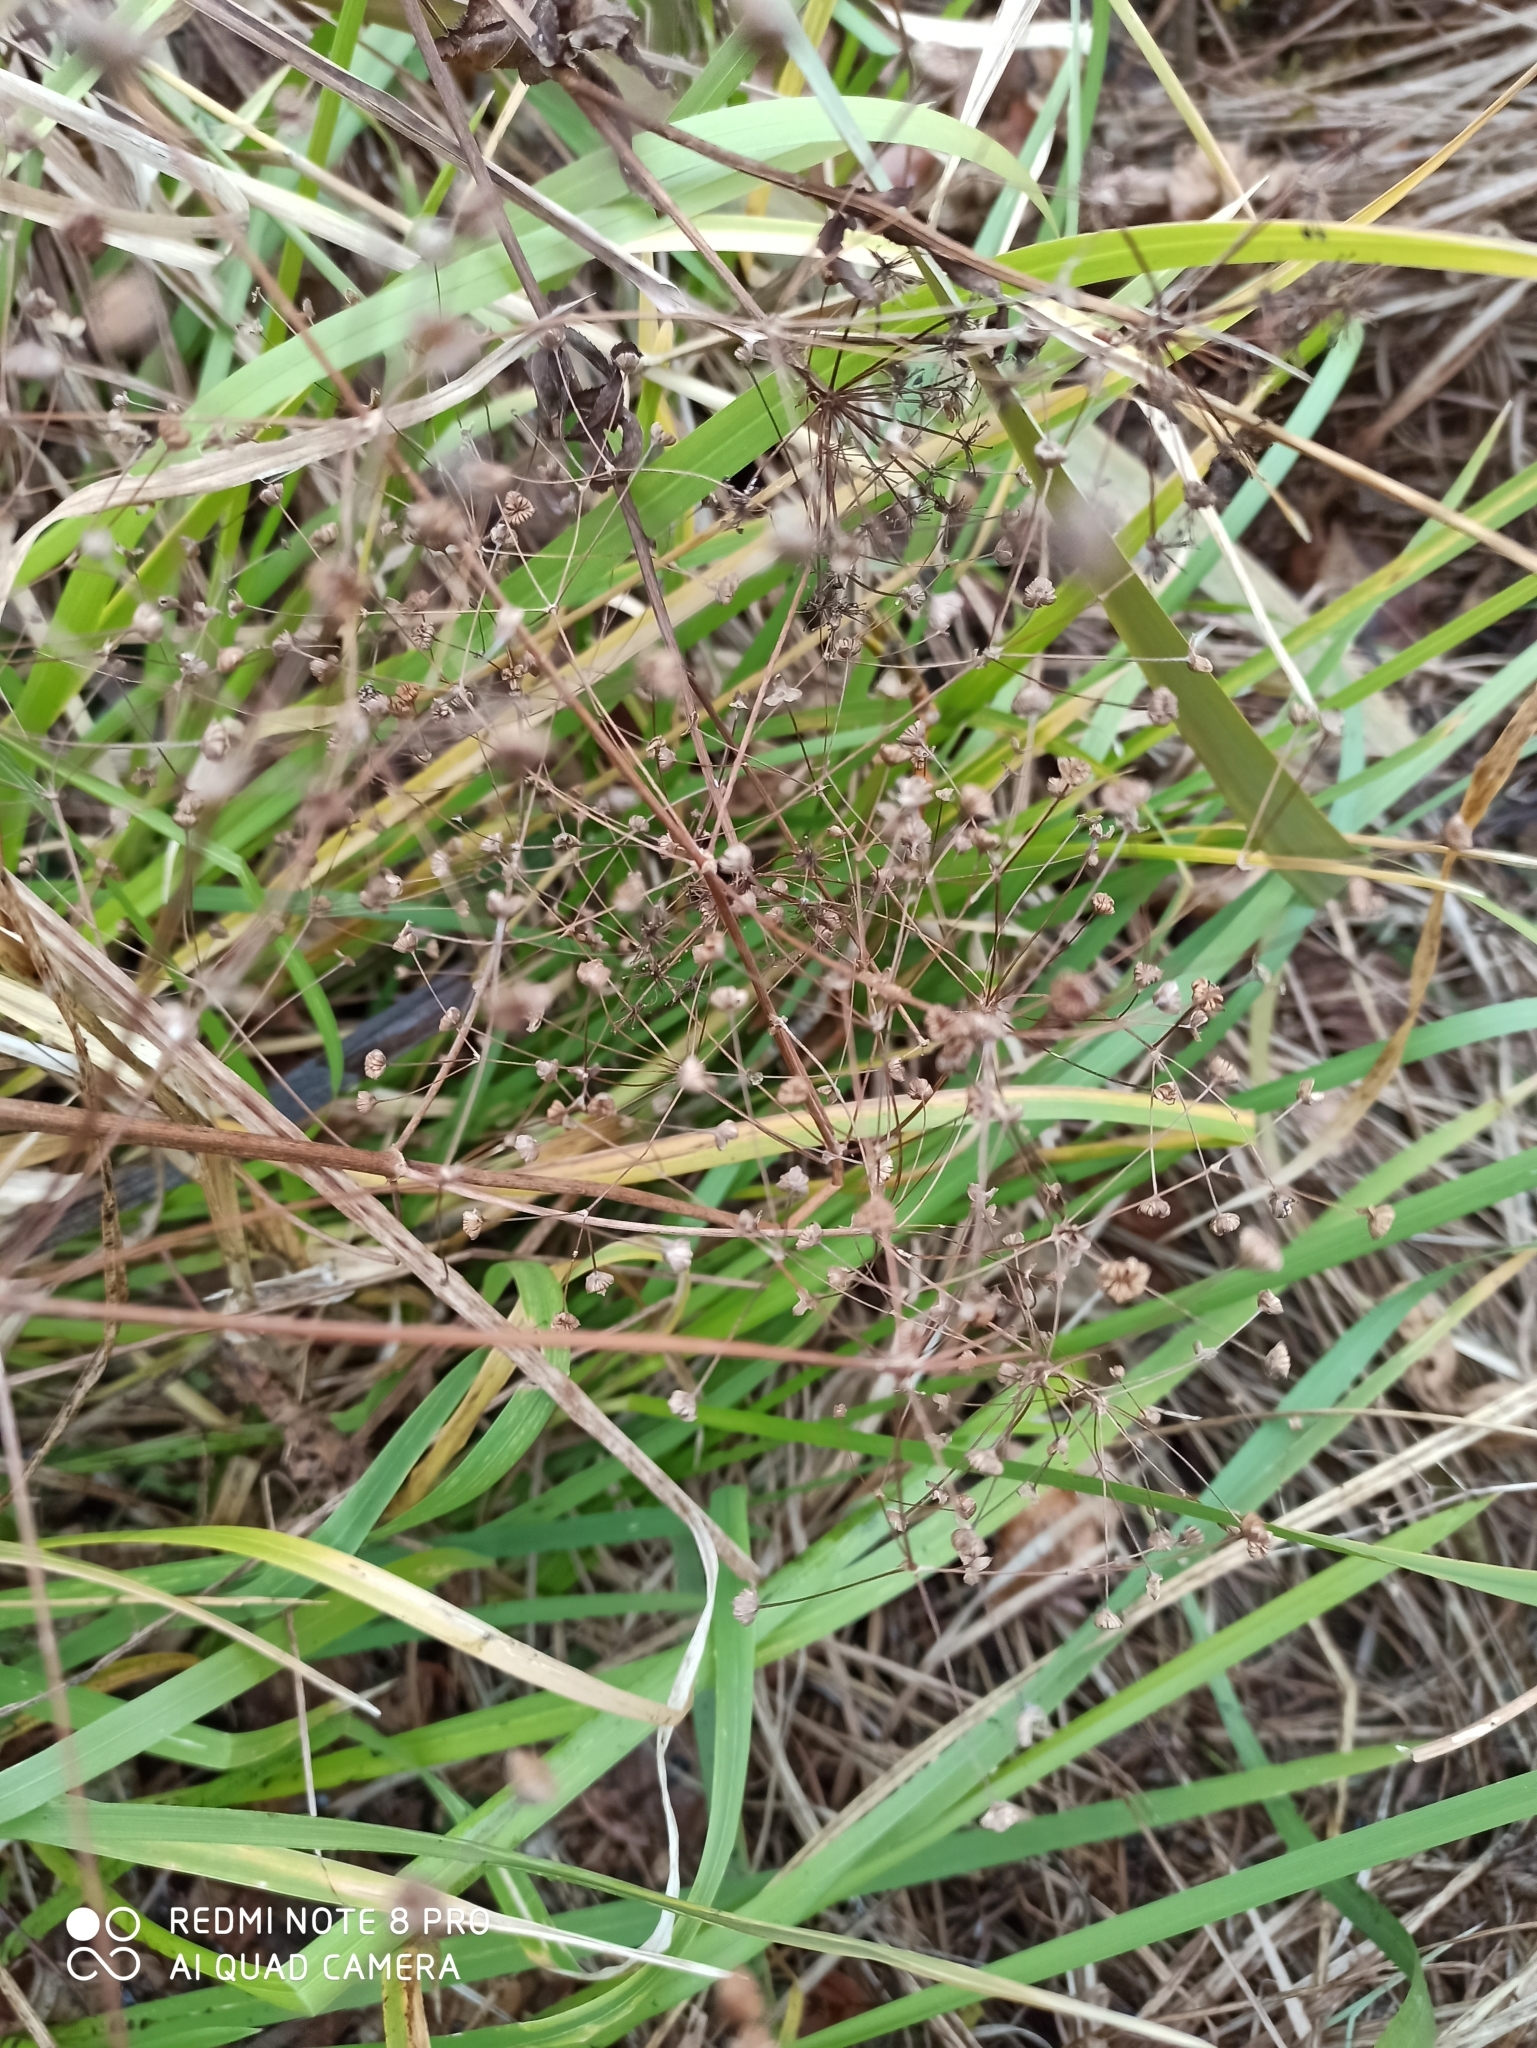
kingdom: Plantae
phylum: Tracheophyta
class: Liliopsida
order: Alismatales
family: Alismataceae
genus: Alisma
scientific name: Alisma plantago-aquatica
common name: Water-plantain
